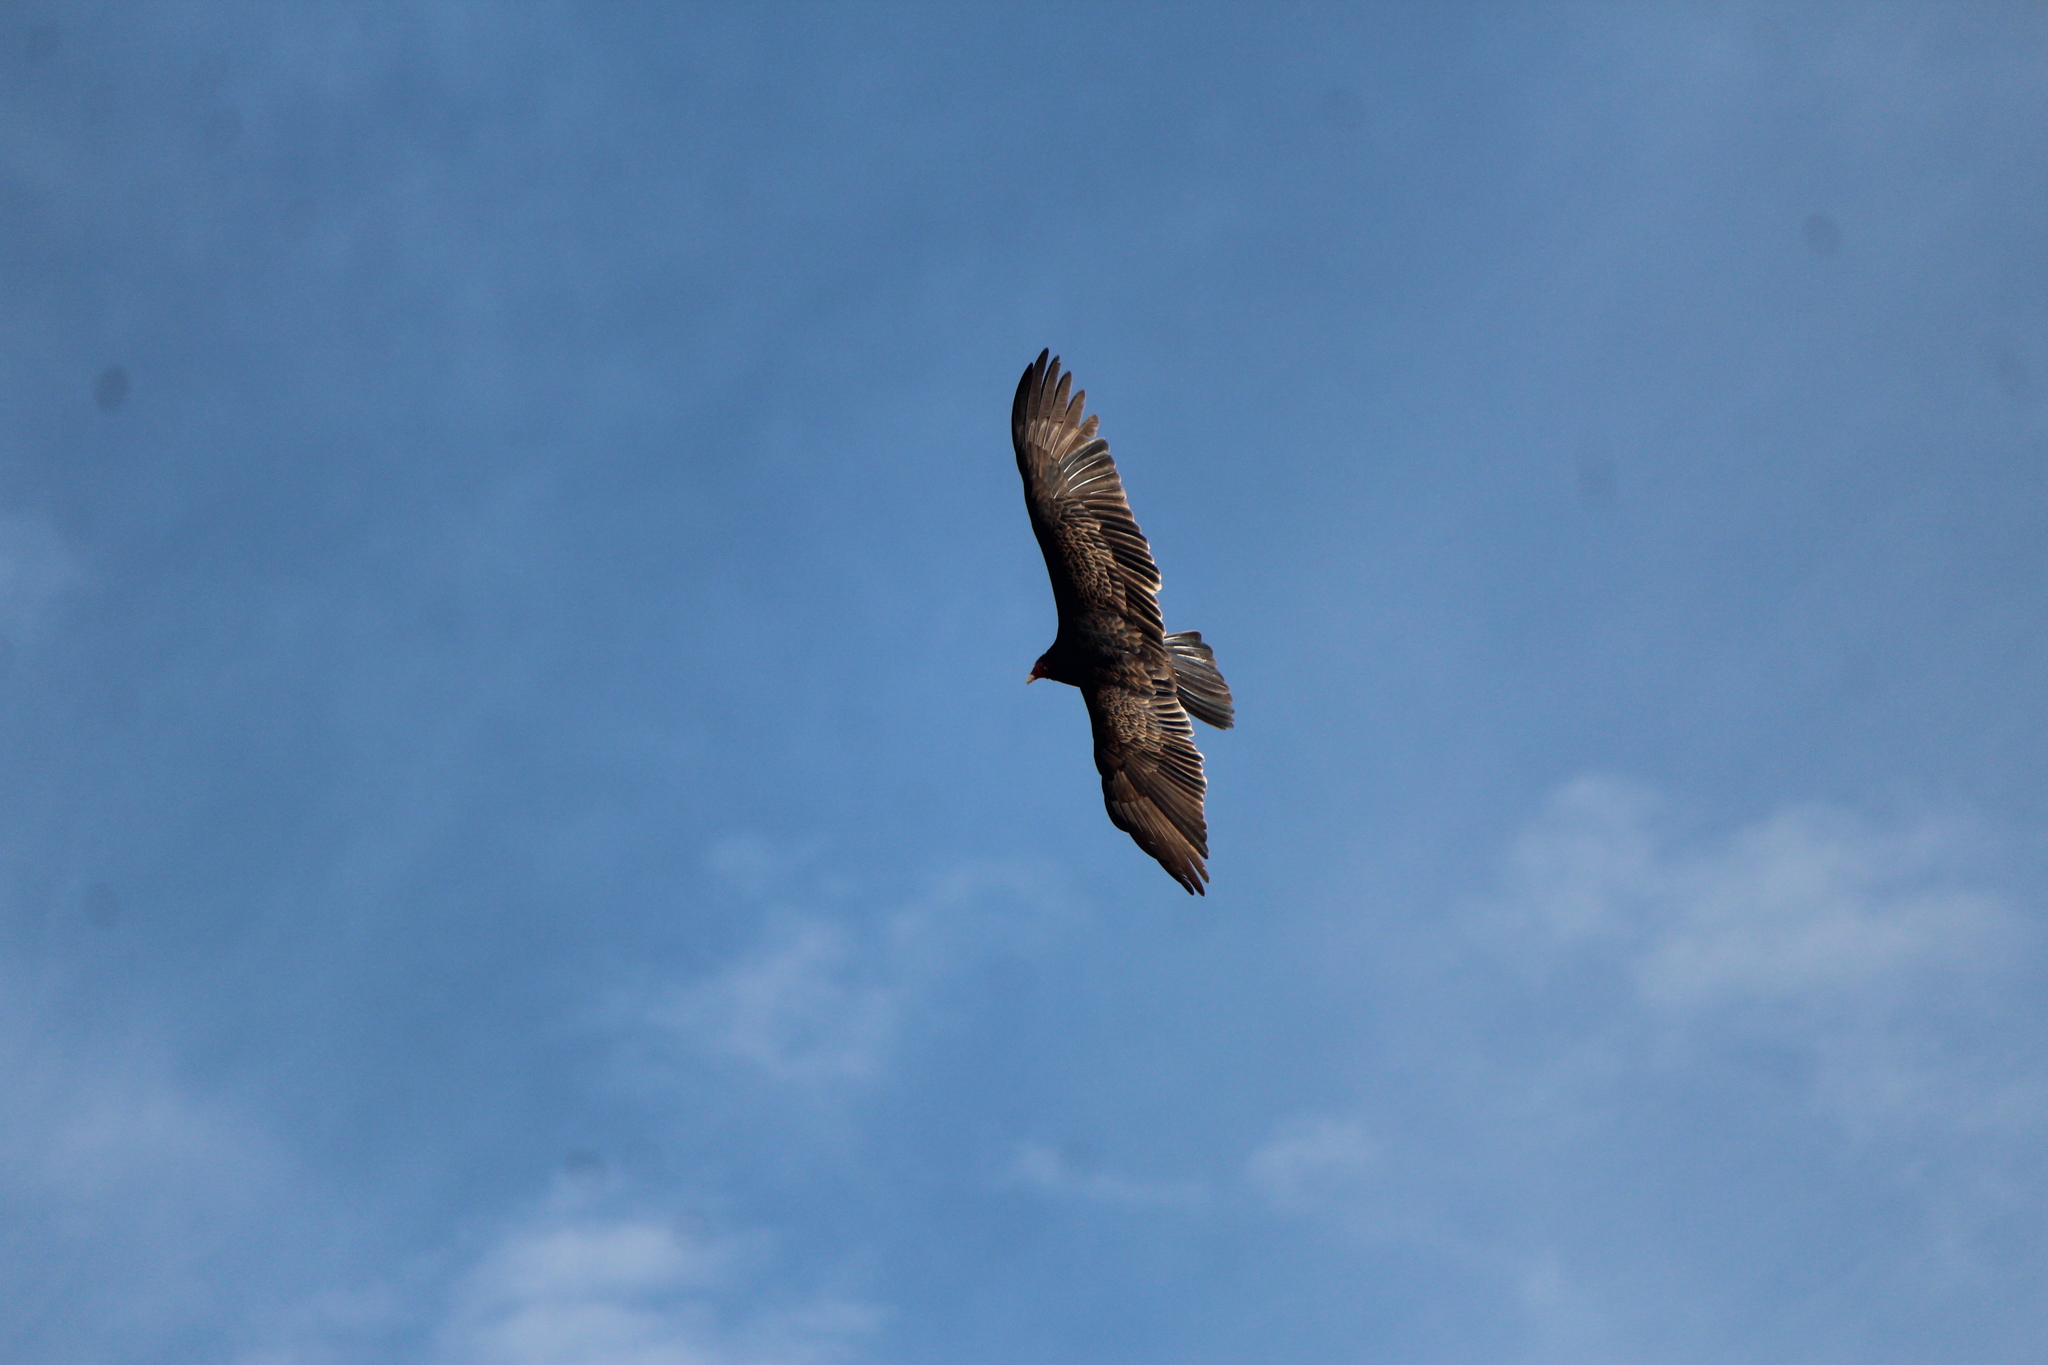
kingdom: Animalia
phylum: Chordata
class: Aves
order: Accipitriformes
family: Cathartidae
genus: Cathartes
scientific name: Cathartes aura
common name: Turkey vulture
